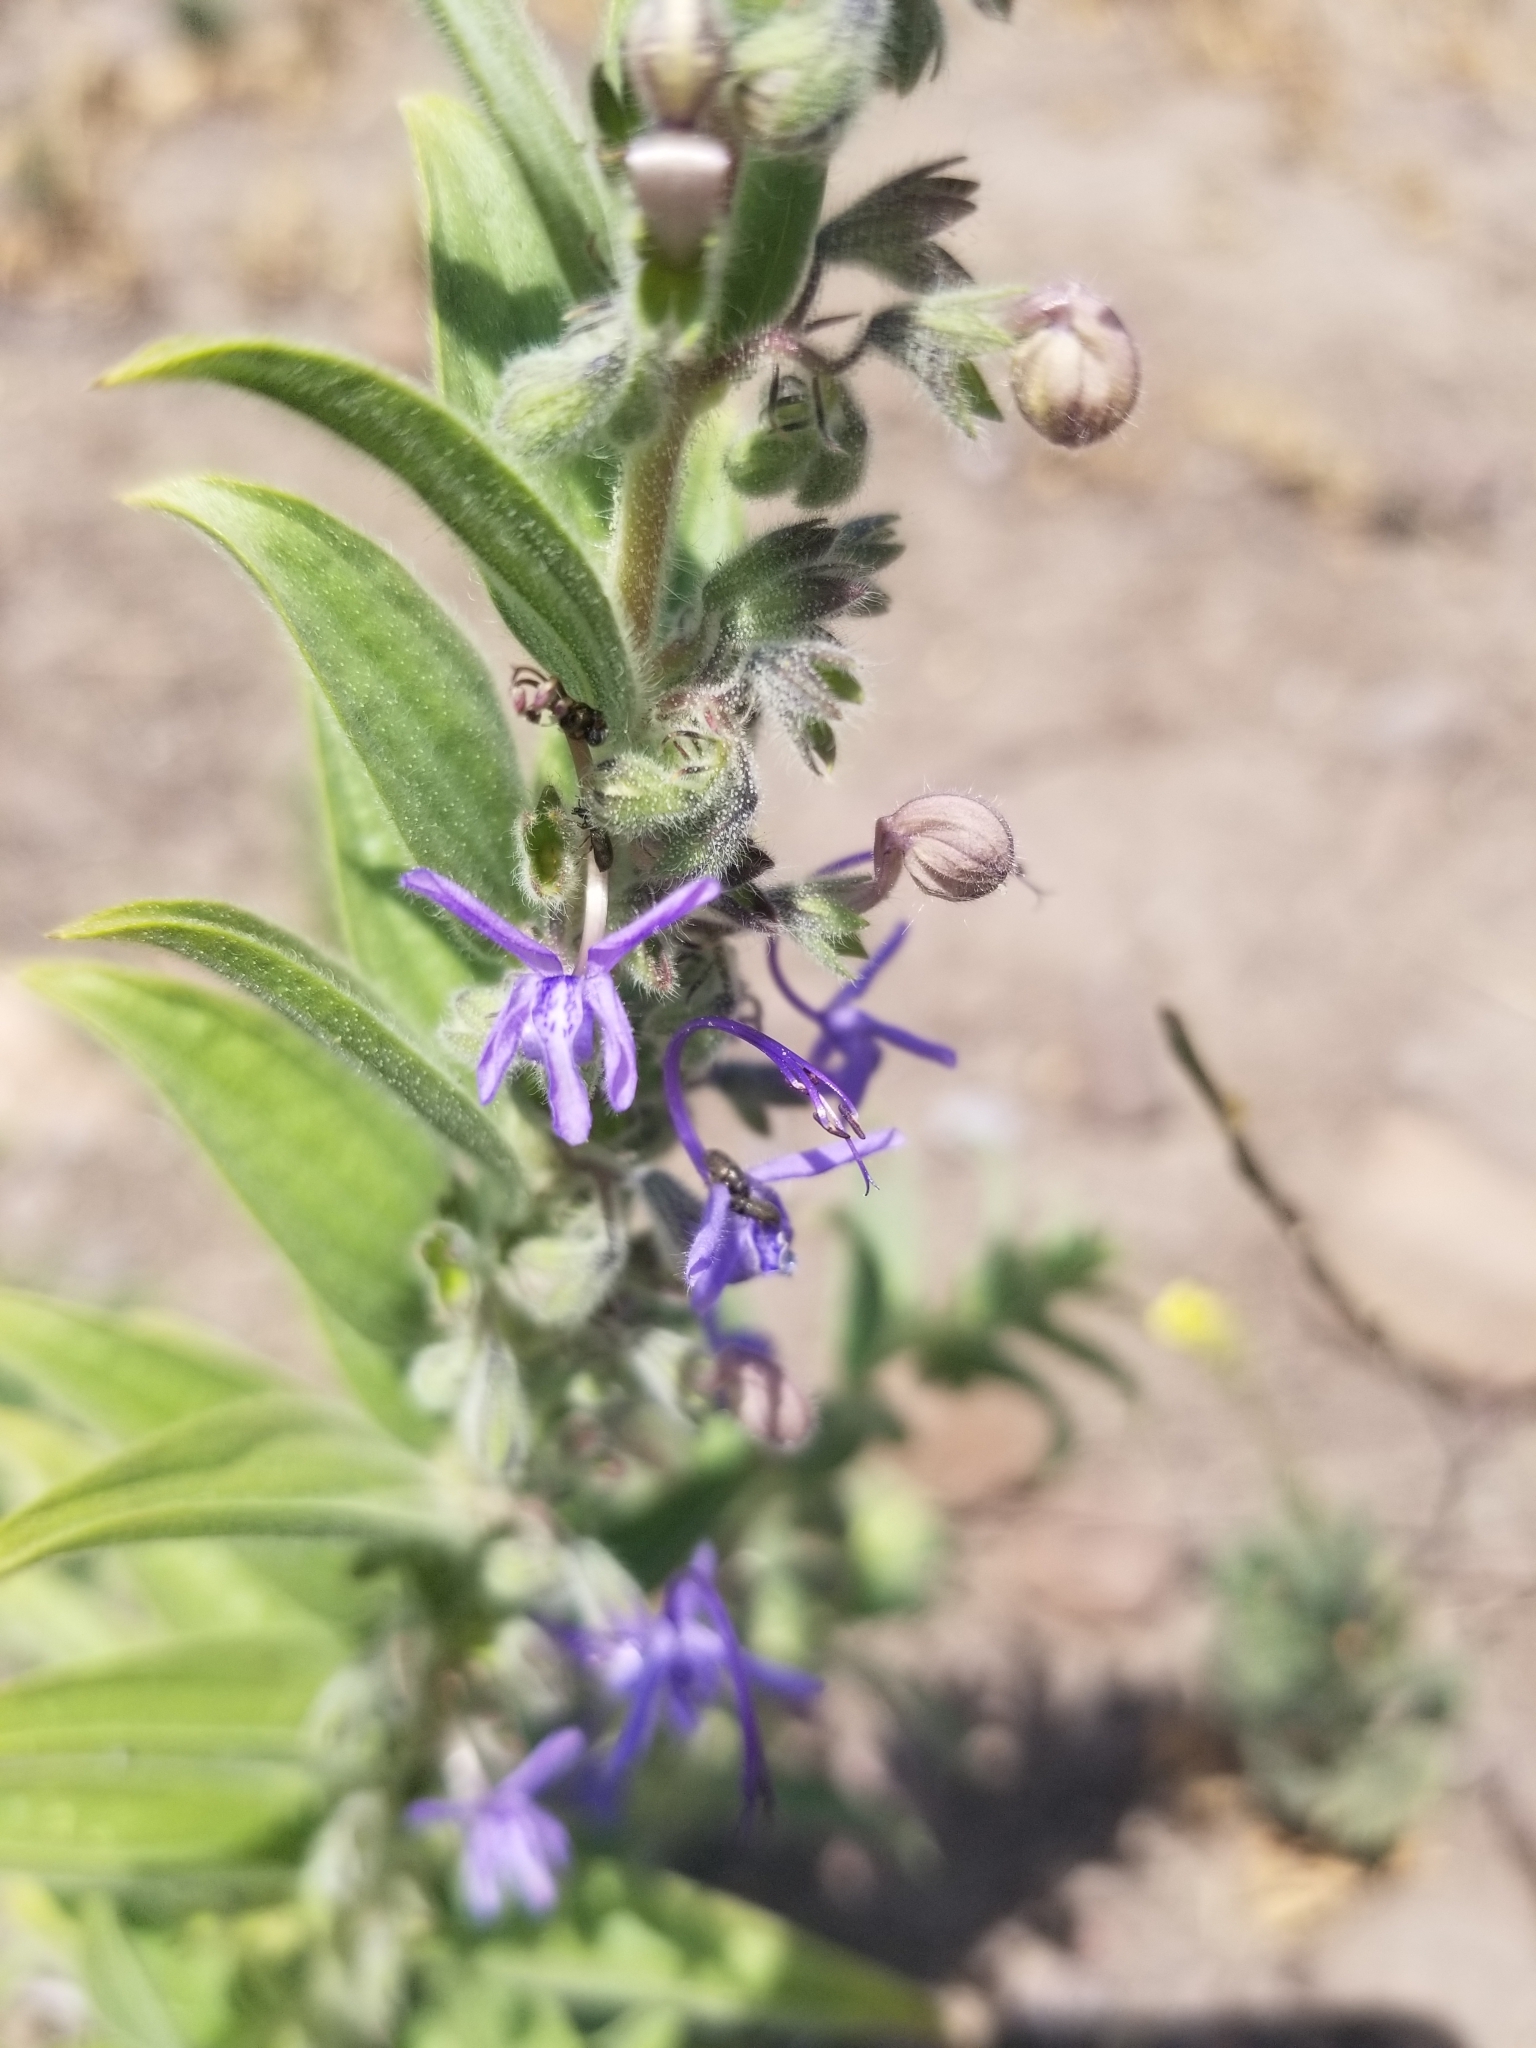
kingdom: Plantae
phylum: Tracheophyta
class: Magnoliopsida
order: Lamiales
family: Lamiaceae
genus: Trichostema
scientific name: Trichostema lanceolatum
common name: Vinegar-weed
